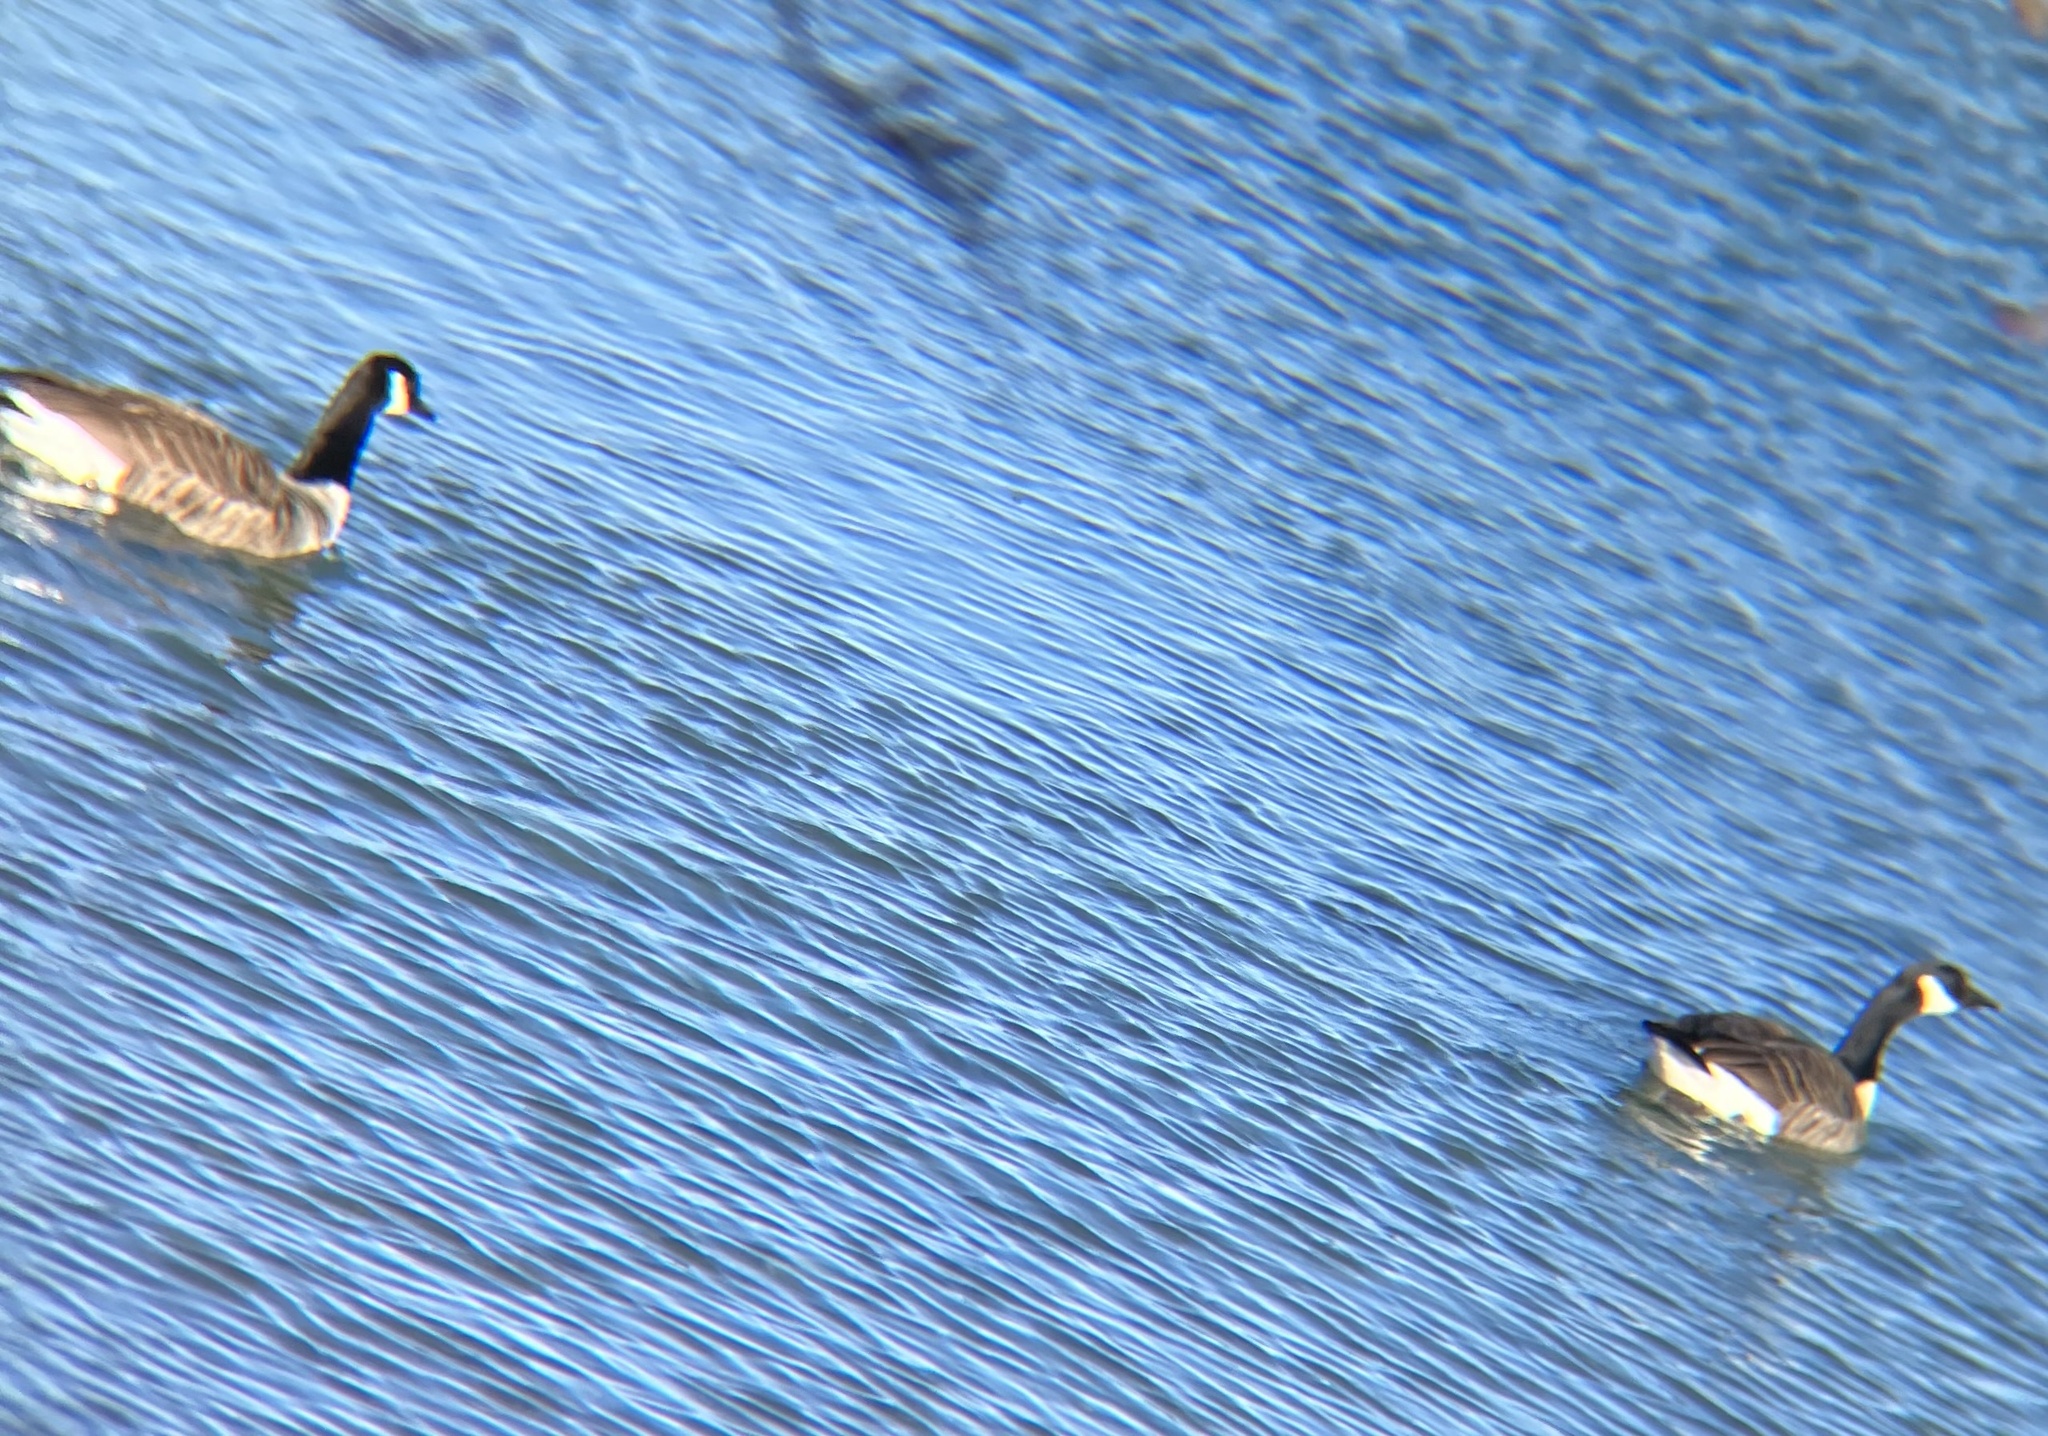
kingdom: Animalia
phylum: Chordata
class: Aves
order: Anseriformes
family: Anatidae
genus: Branta
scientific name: Branta canadensis
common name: Canada goose
